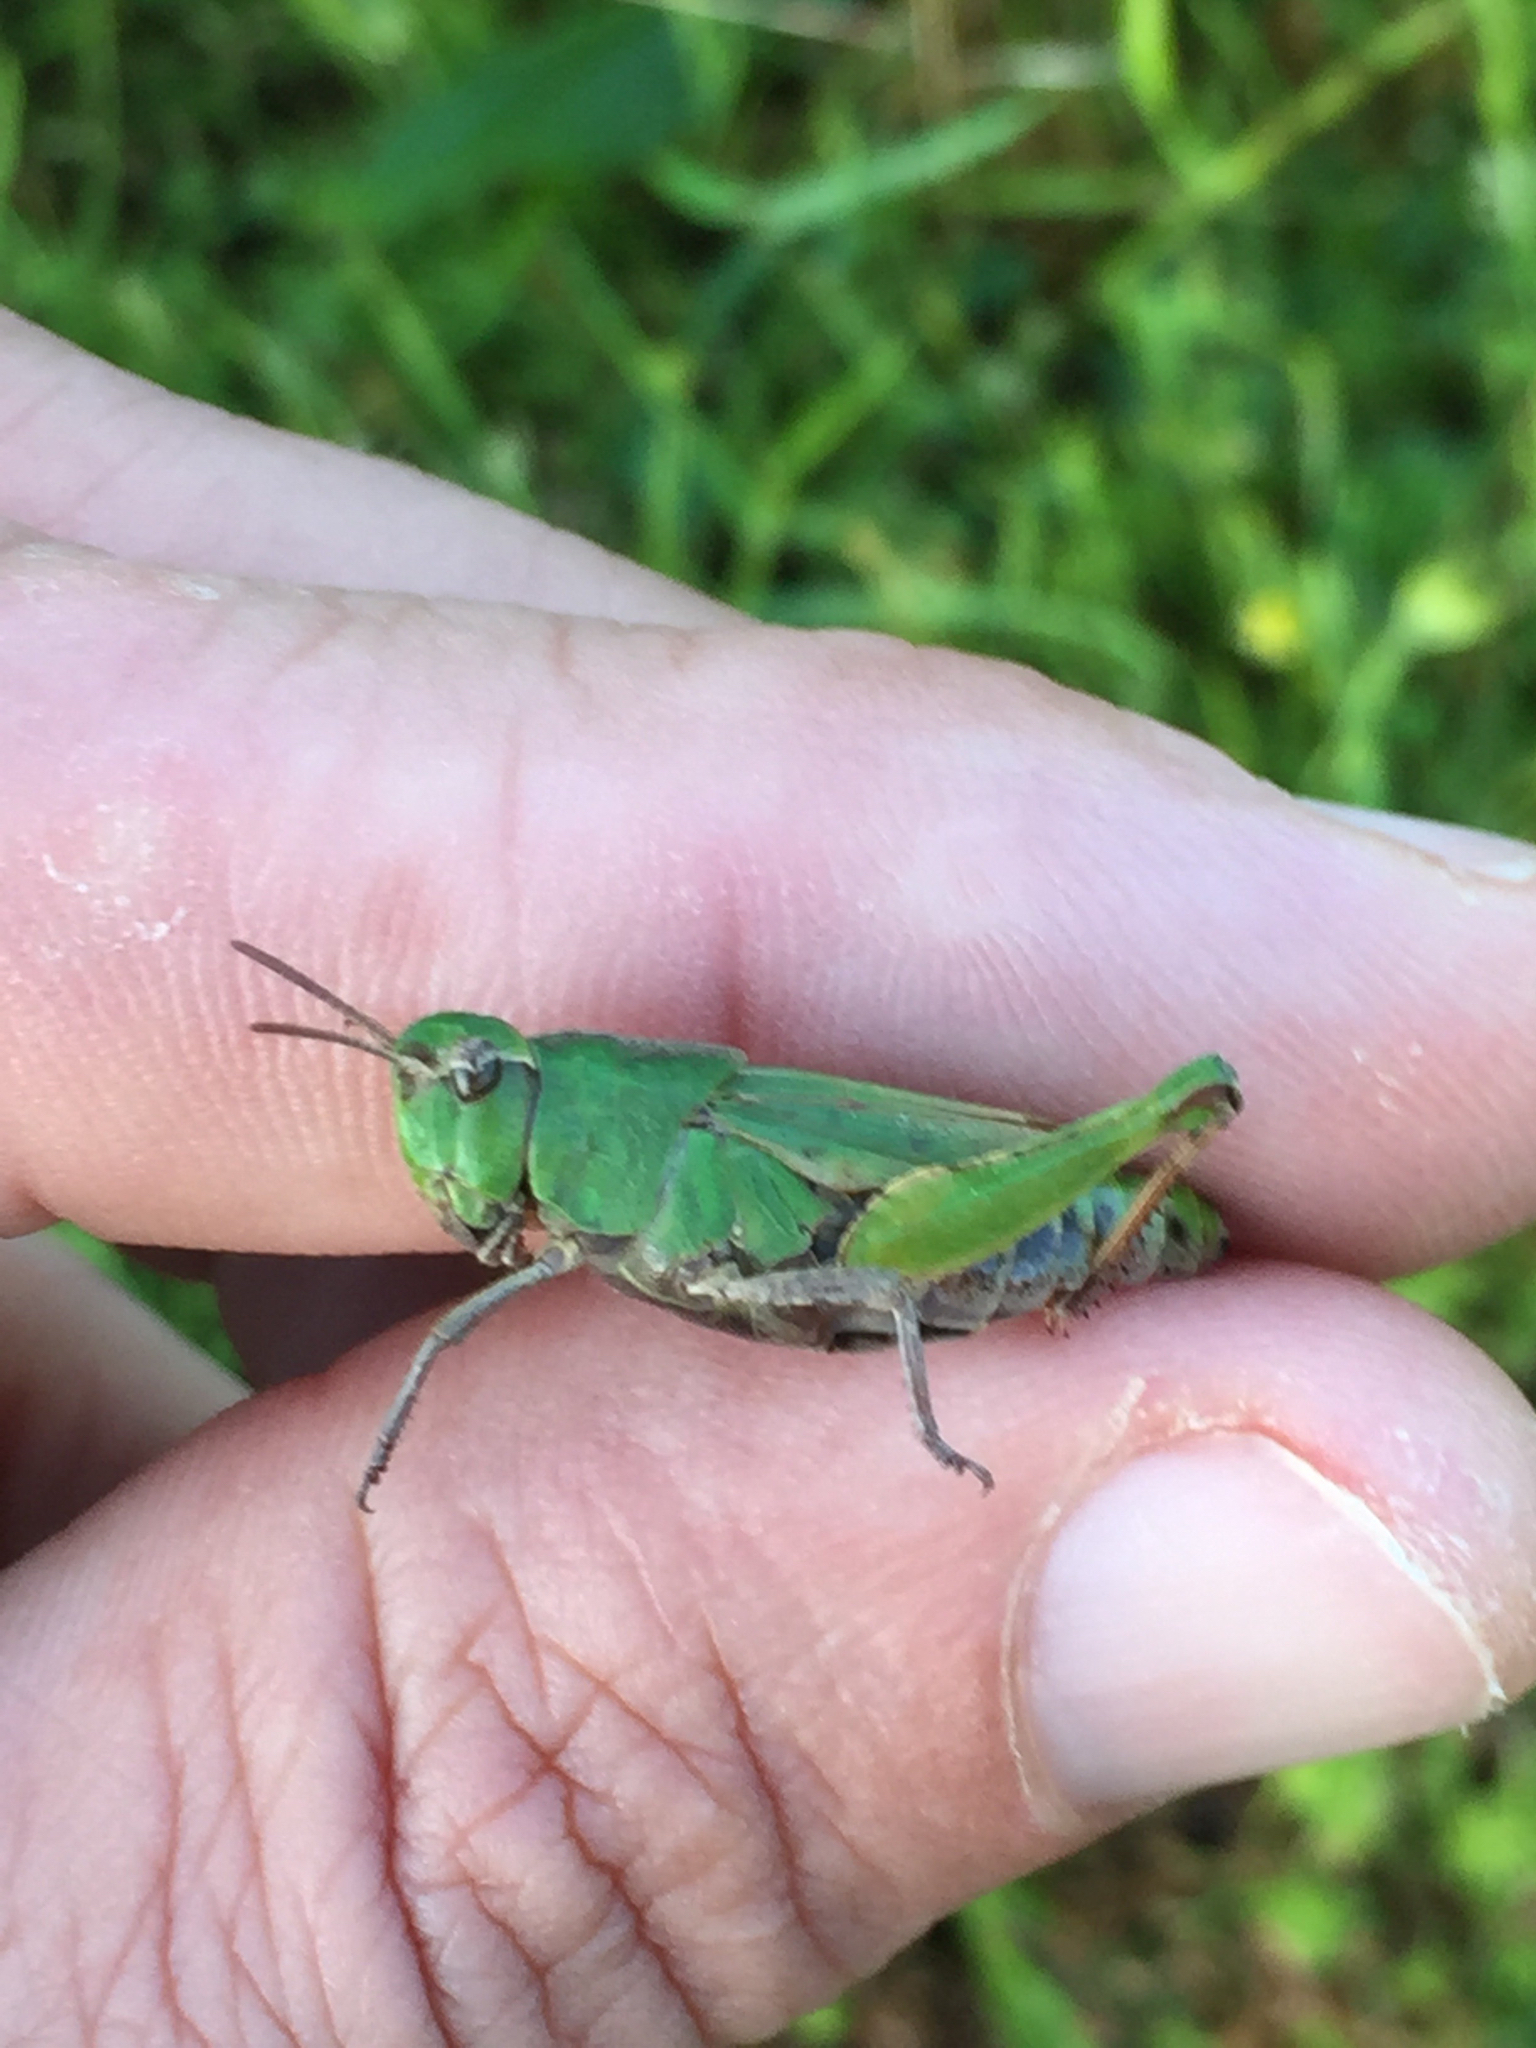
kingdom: Animalia
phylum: Arthropoda
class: Insecta
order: Orthoptera
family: Acrididae
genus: Chimarocephala
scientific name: Chimarocephala pacifica
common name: Painted meadow grasshopper
